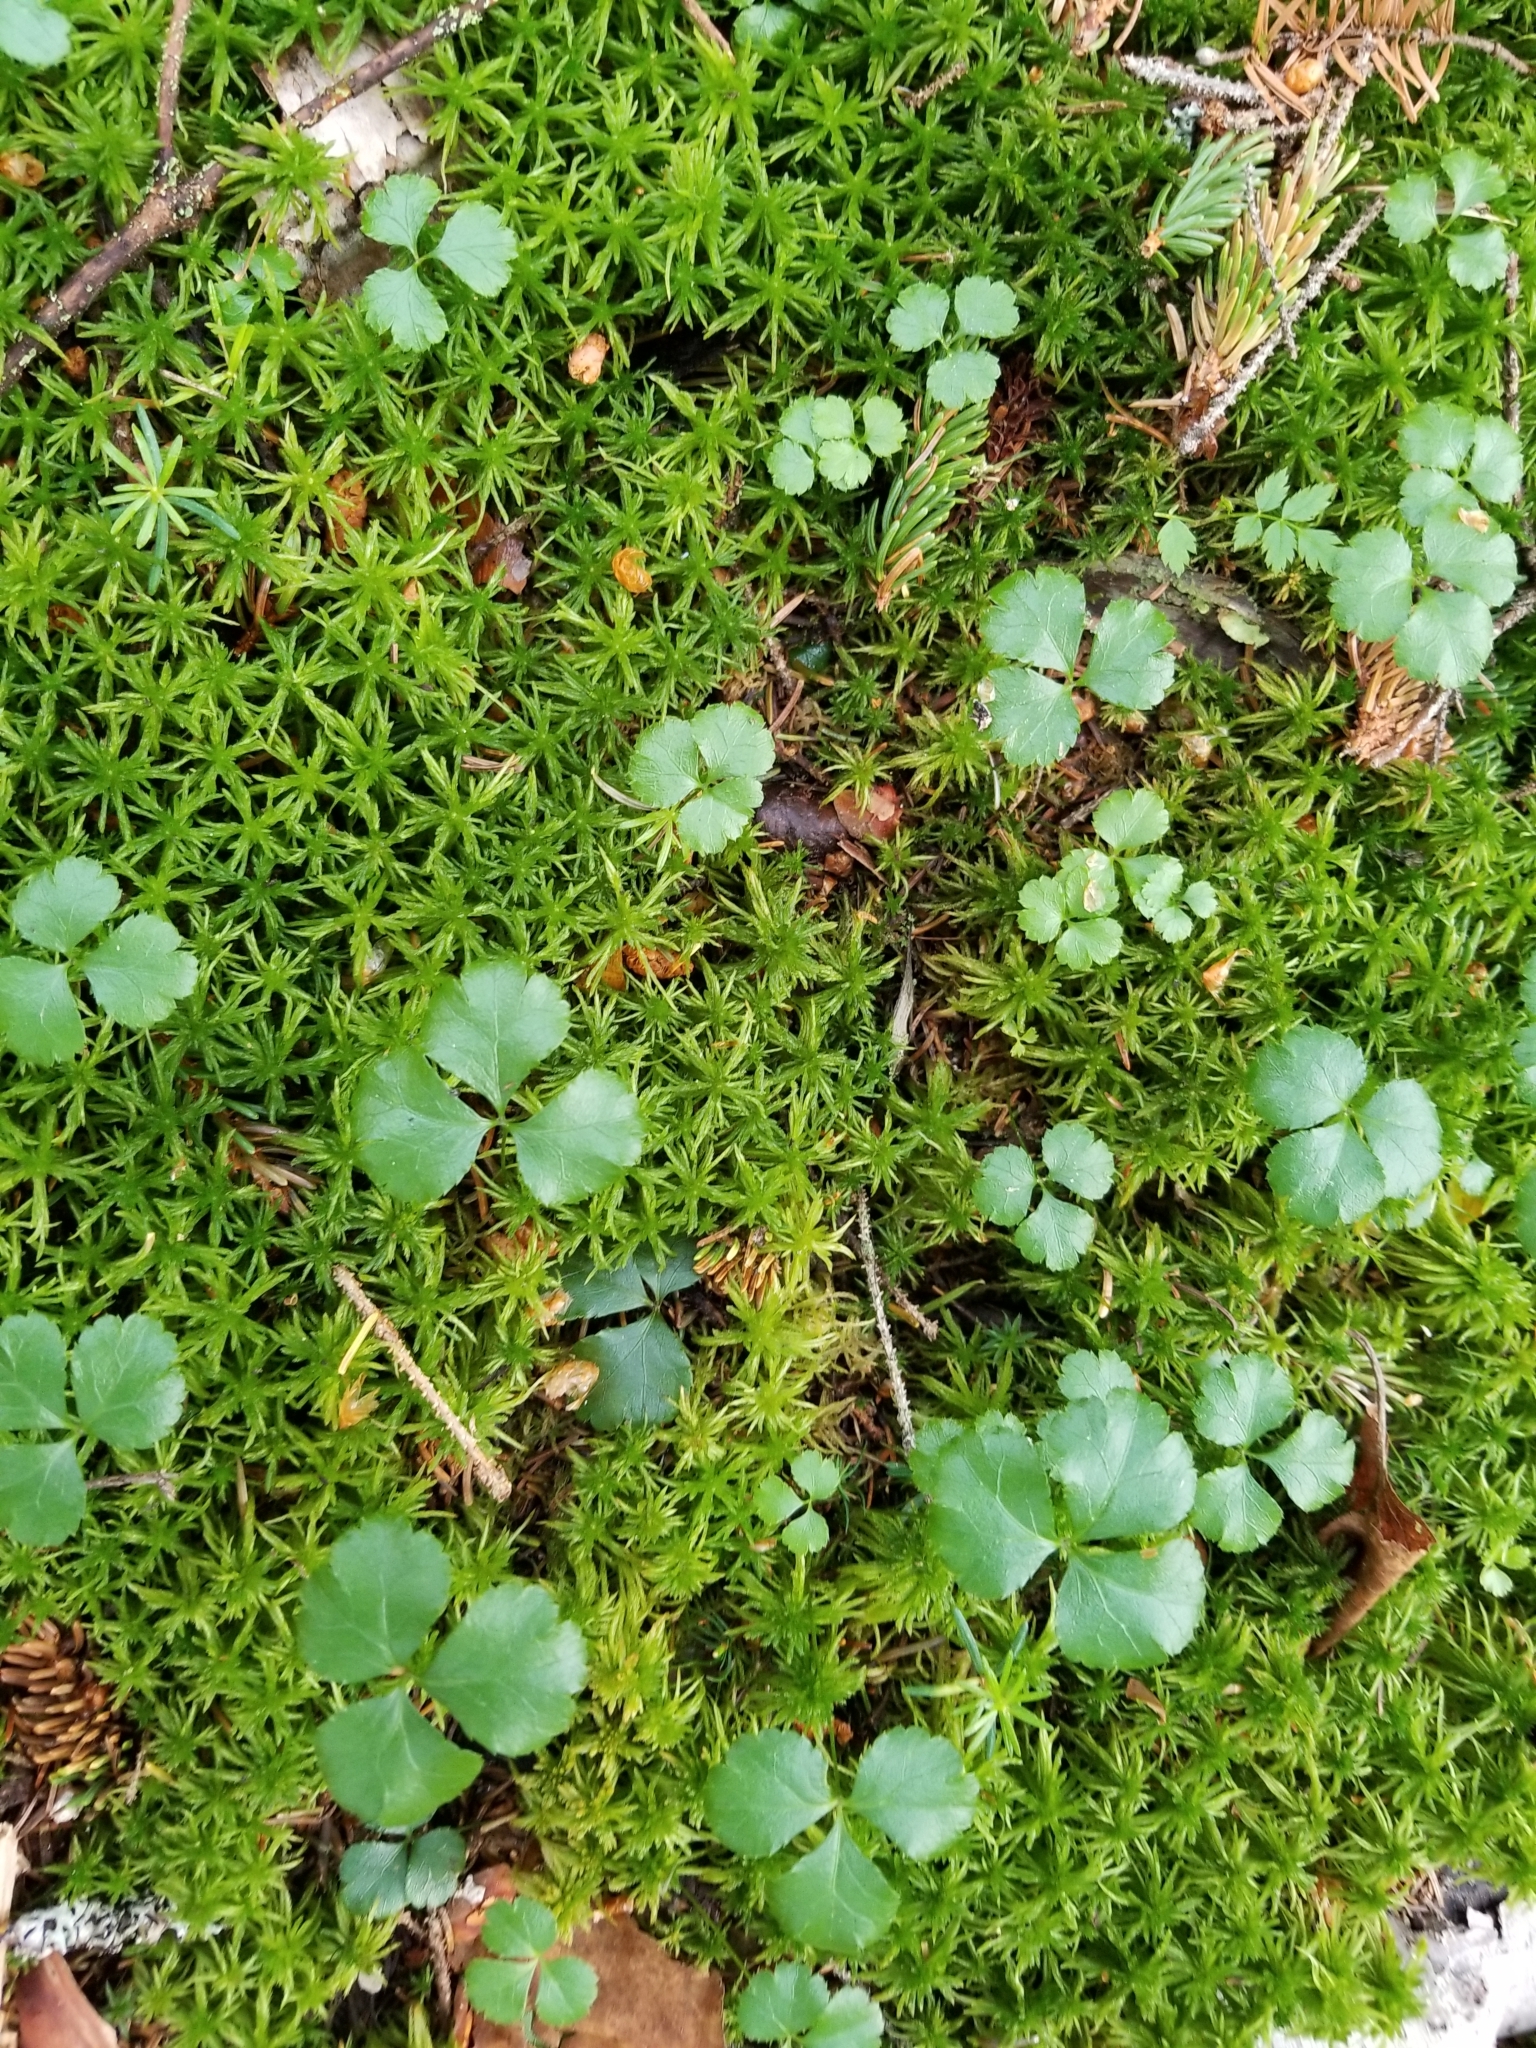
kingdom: Plantae
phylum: Tracheophyta
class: Magnoliopsida
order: Ranunculales
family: Ranunculaceae
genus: Coptis
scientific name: Coptis trifolia
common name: Canker-root
